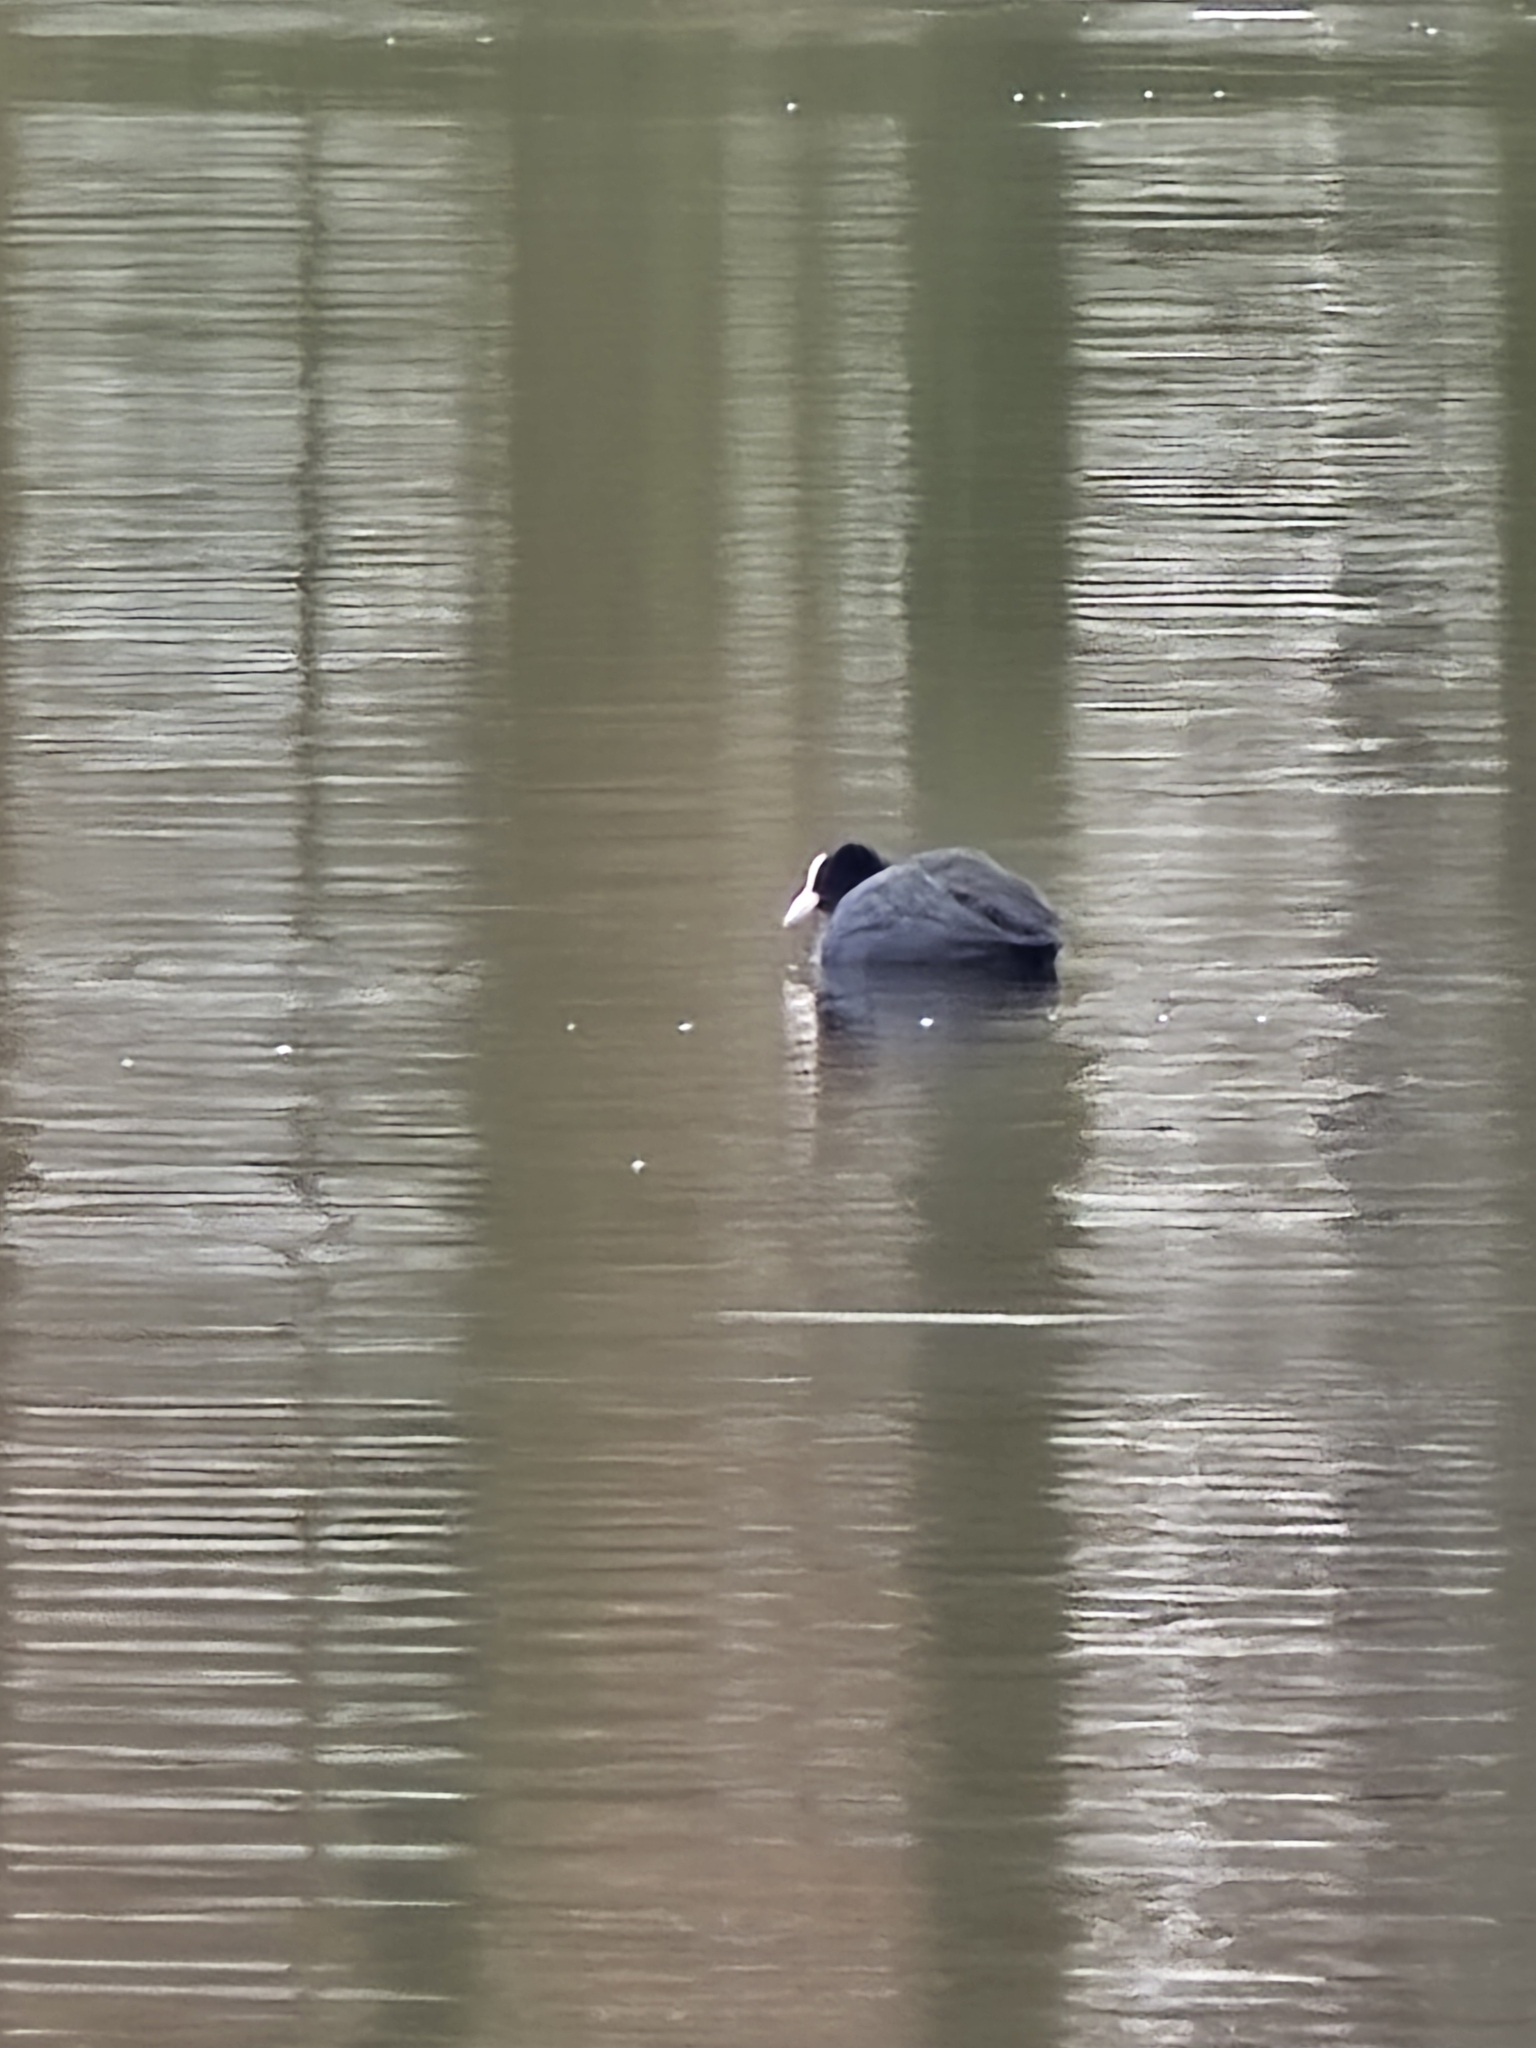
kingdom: Animalia
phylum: Chordata
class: Aves
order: Gruiformes
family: Rallidae
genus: Fulica
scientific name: Fulica atra
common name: Eurasian coot
